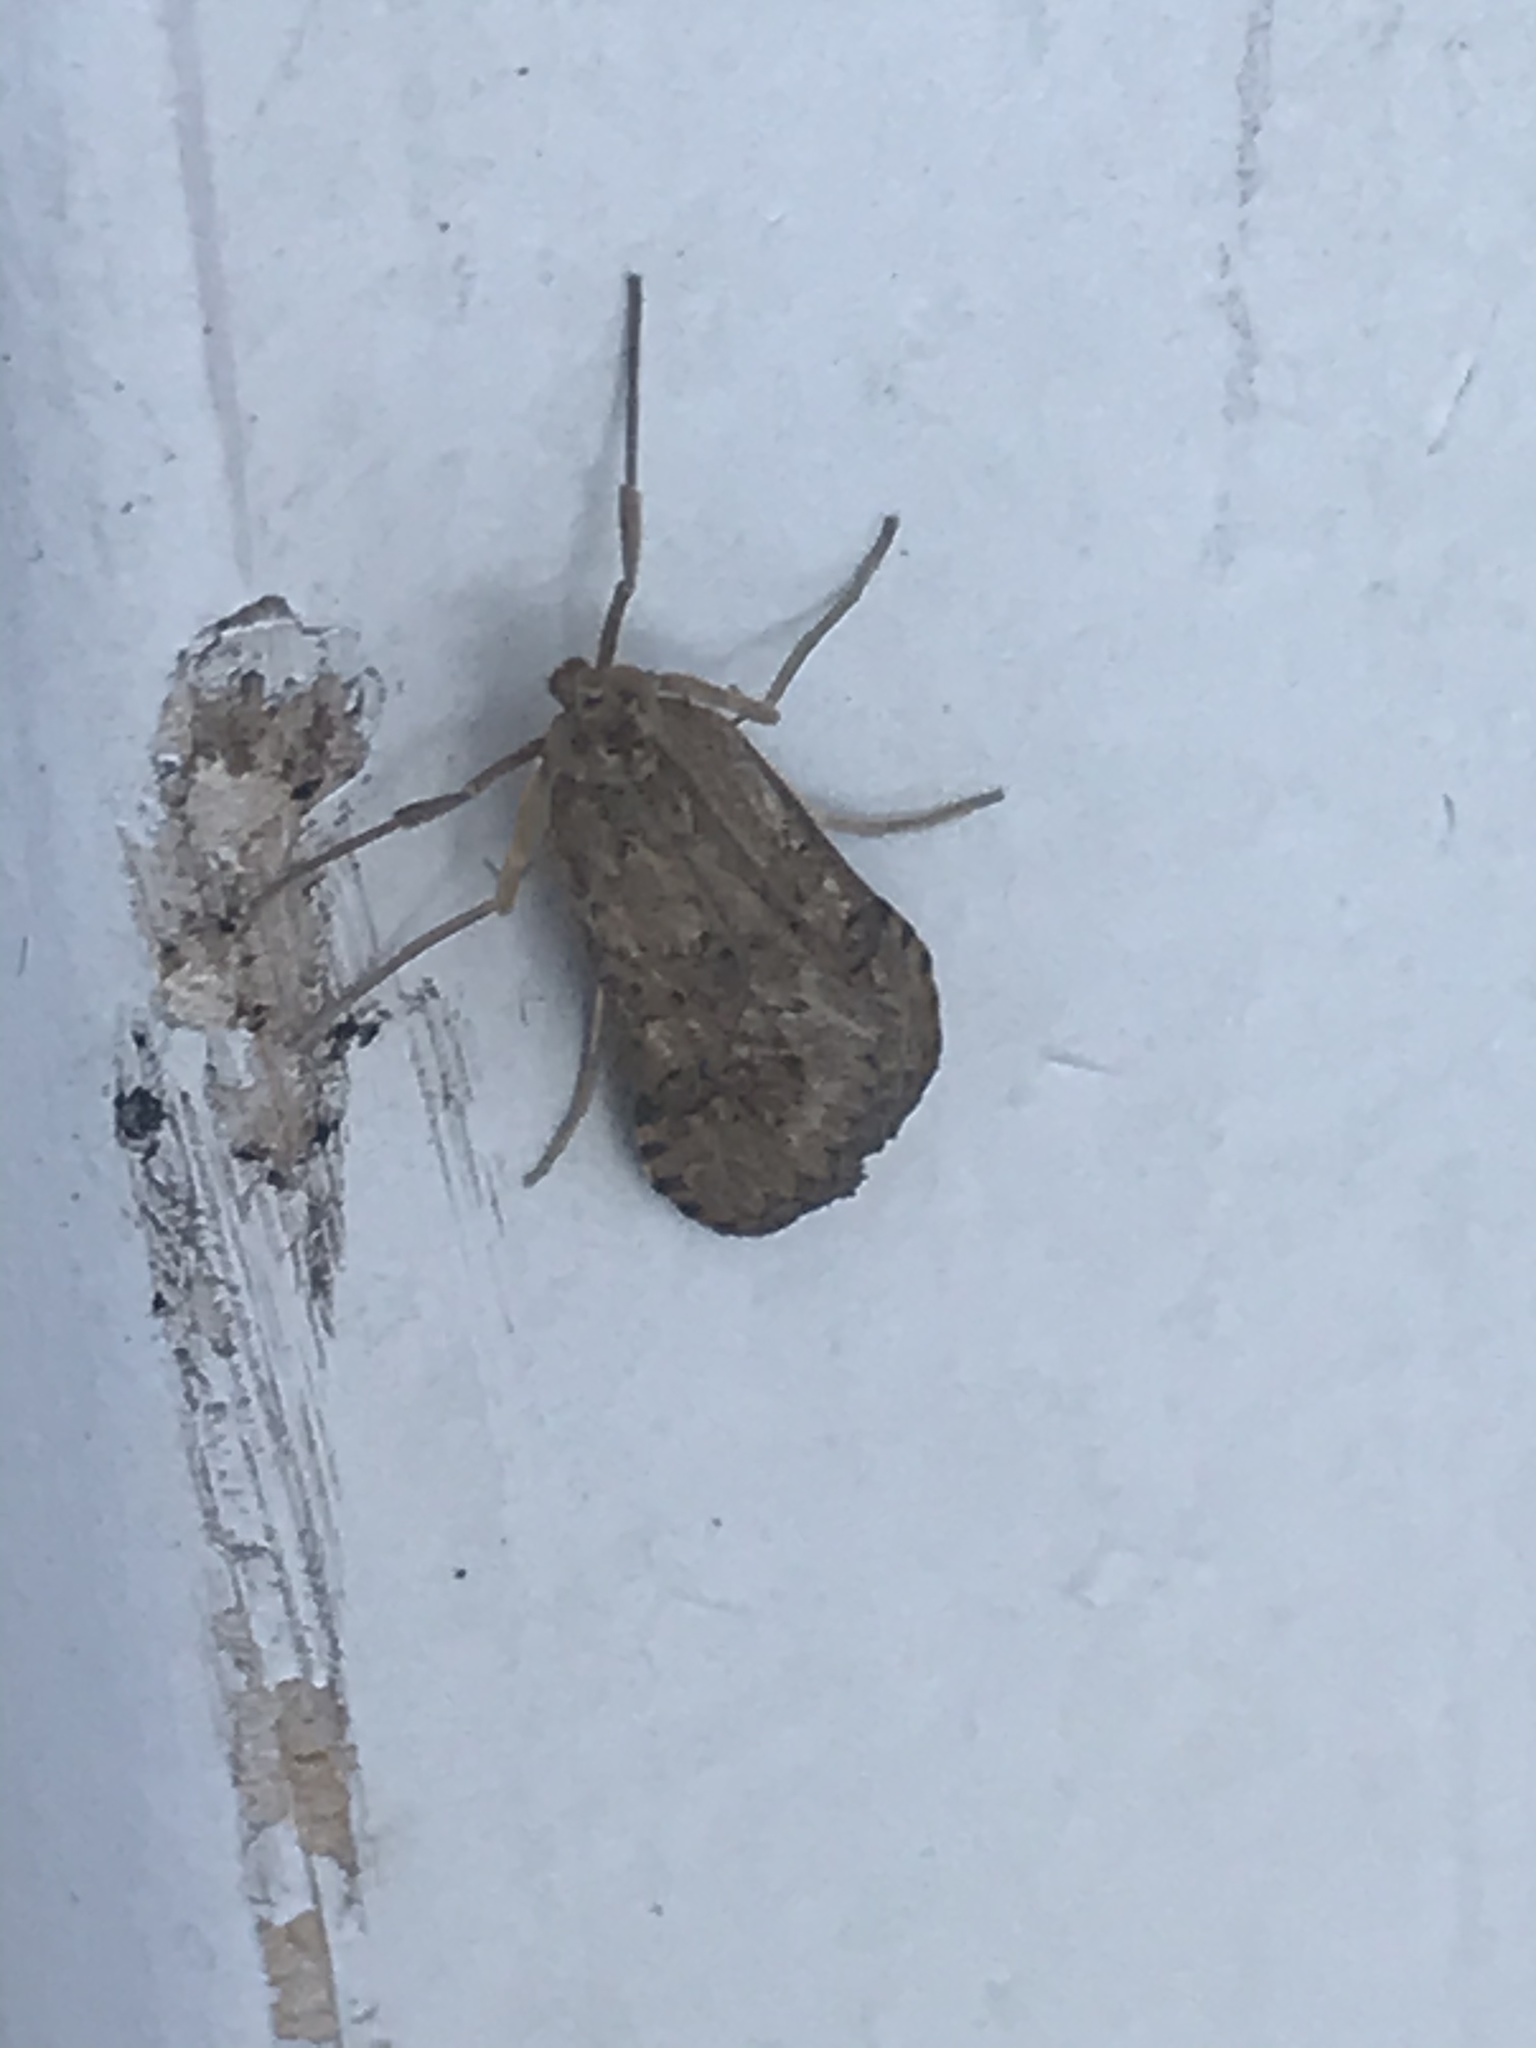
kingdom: Animalia
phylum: Arthropoda
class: Insecta
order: Lepidoptera
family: Crambidae
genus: Nomophila
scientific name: Nomophila nearctica
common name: American rush veneer
